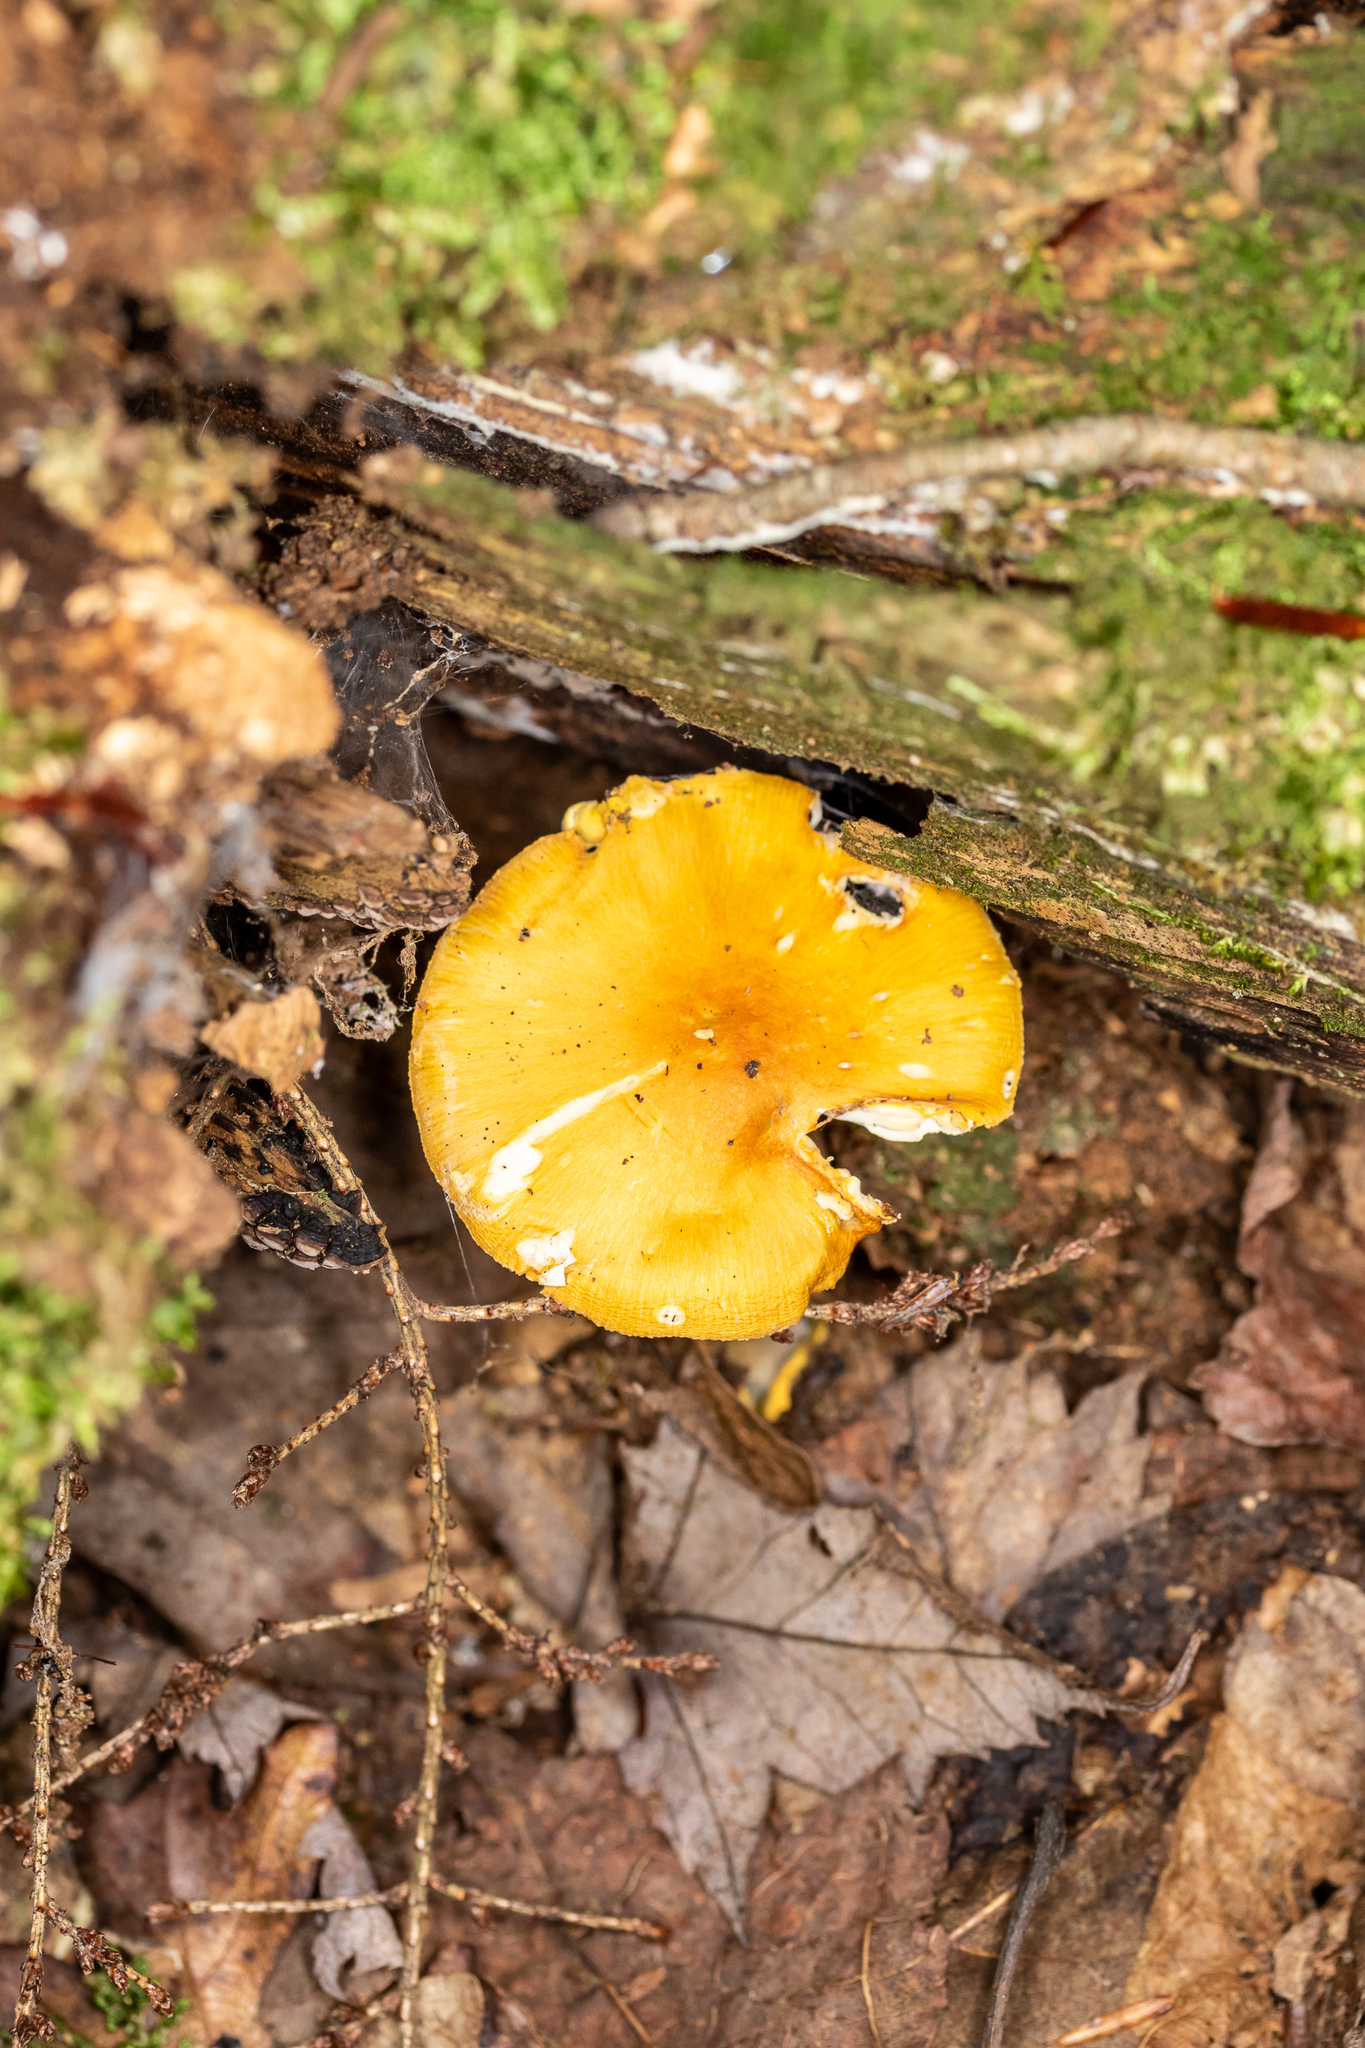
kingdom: Fungi
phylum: Basidiomycota
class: Agaricomycetes
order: Agaricales
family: Amanitaceae
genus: Amanita
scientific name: Amanita flavoconia
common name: Yellow patches
